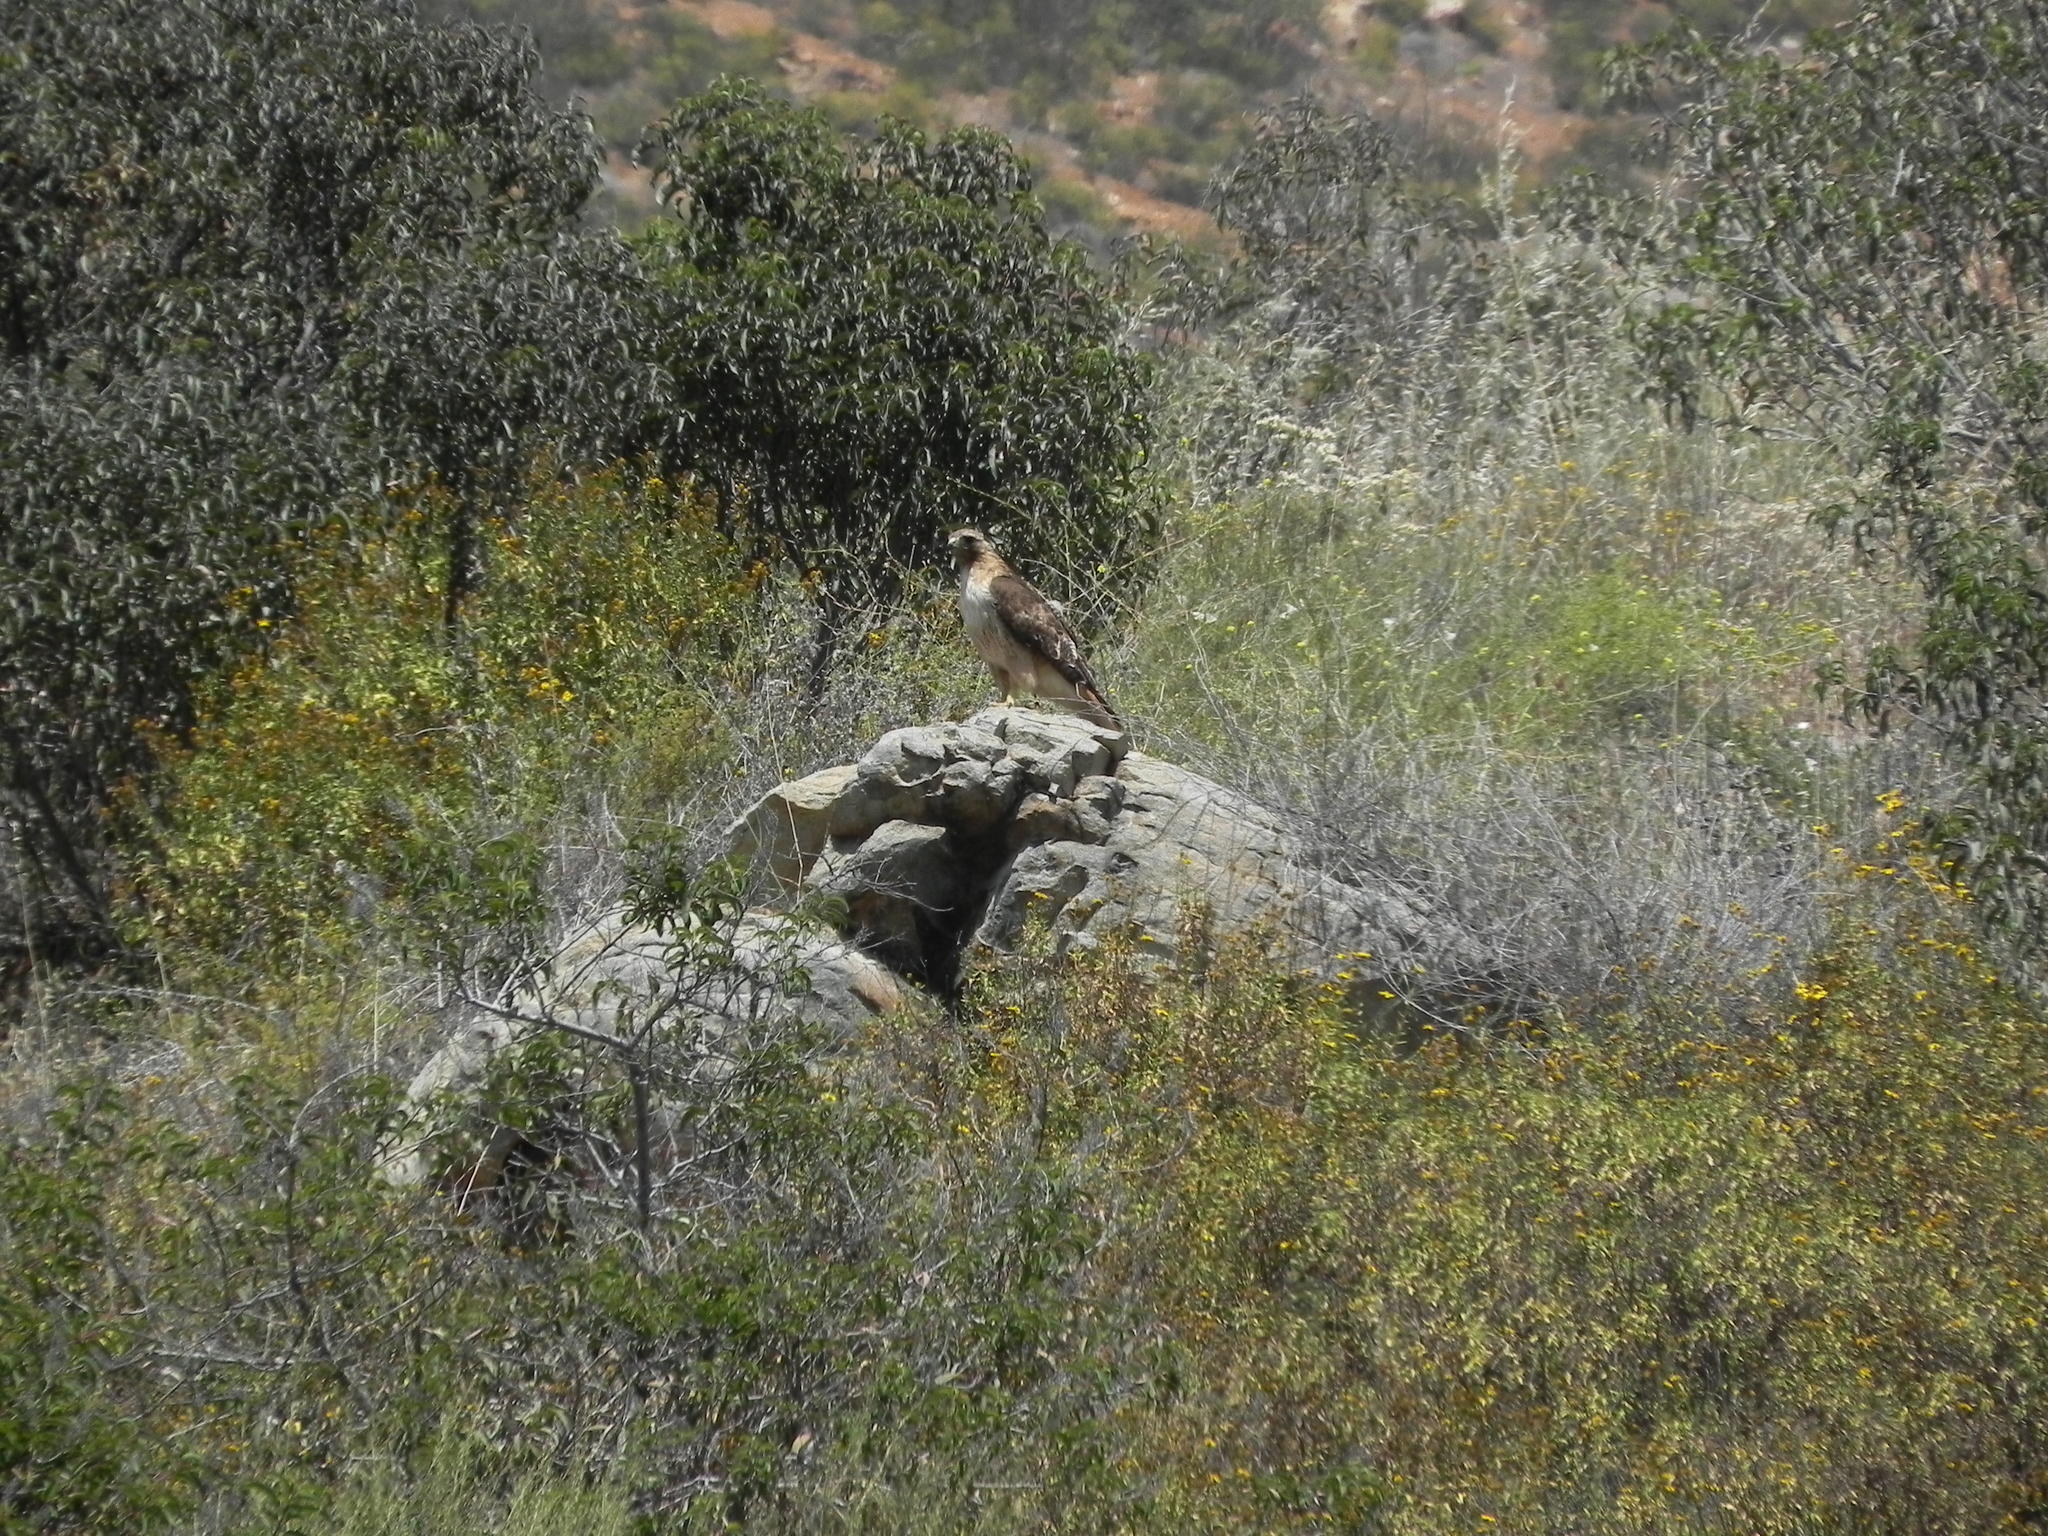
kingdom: Animalia
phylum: Chordata
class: Aves
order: Accipitriformes
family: Accipitridae
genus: Buteo
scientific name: Buteo jamaicensis
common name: Red-tailed hawk
